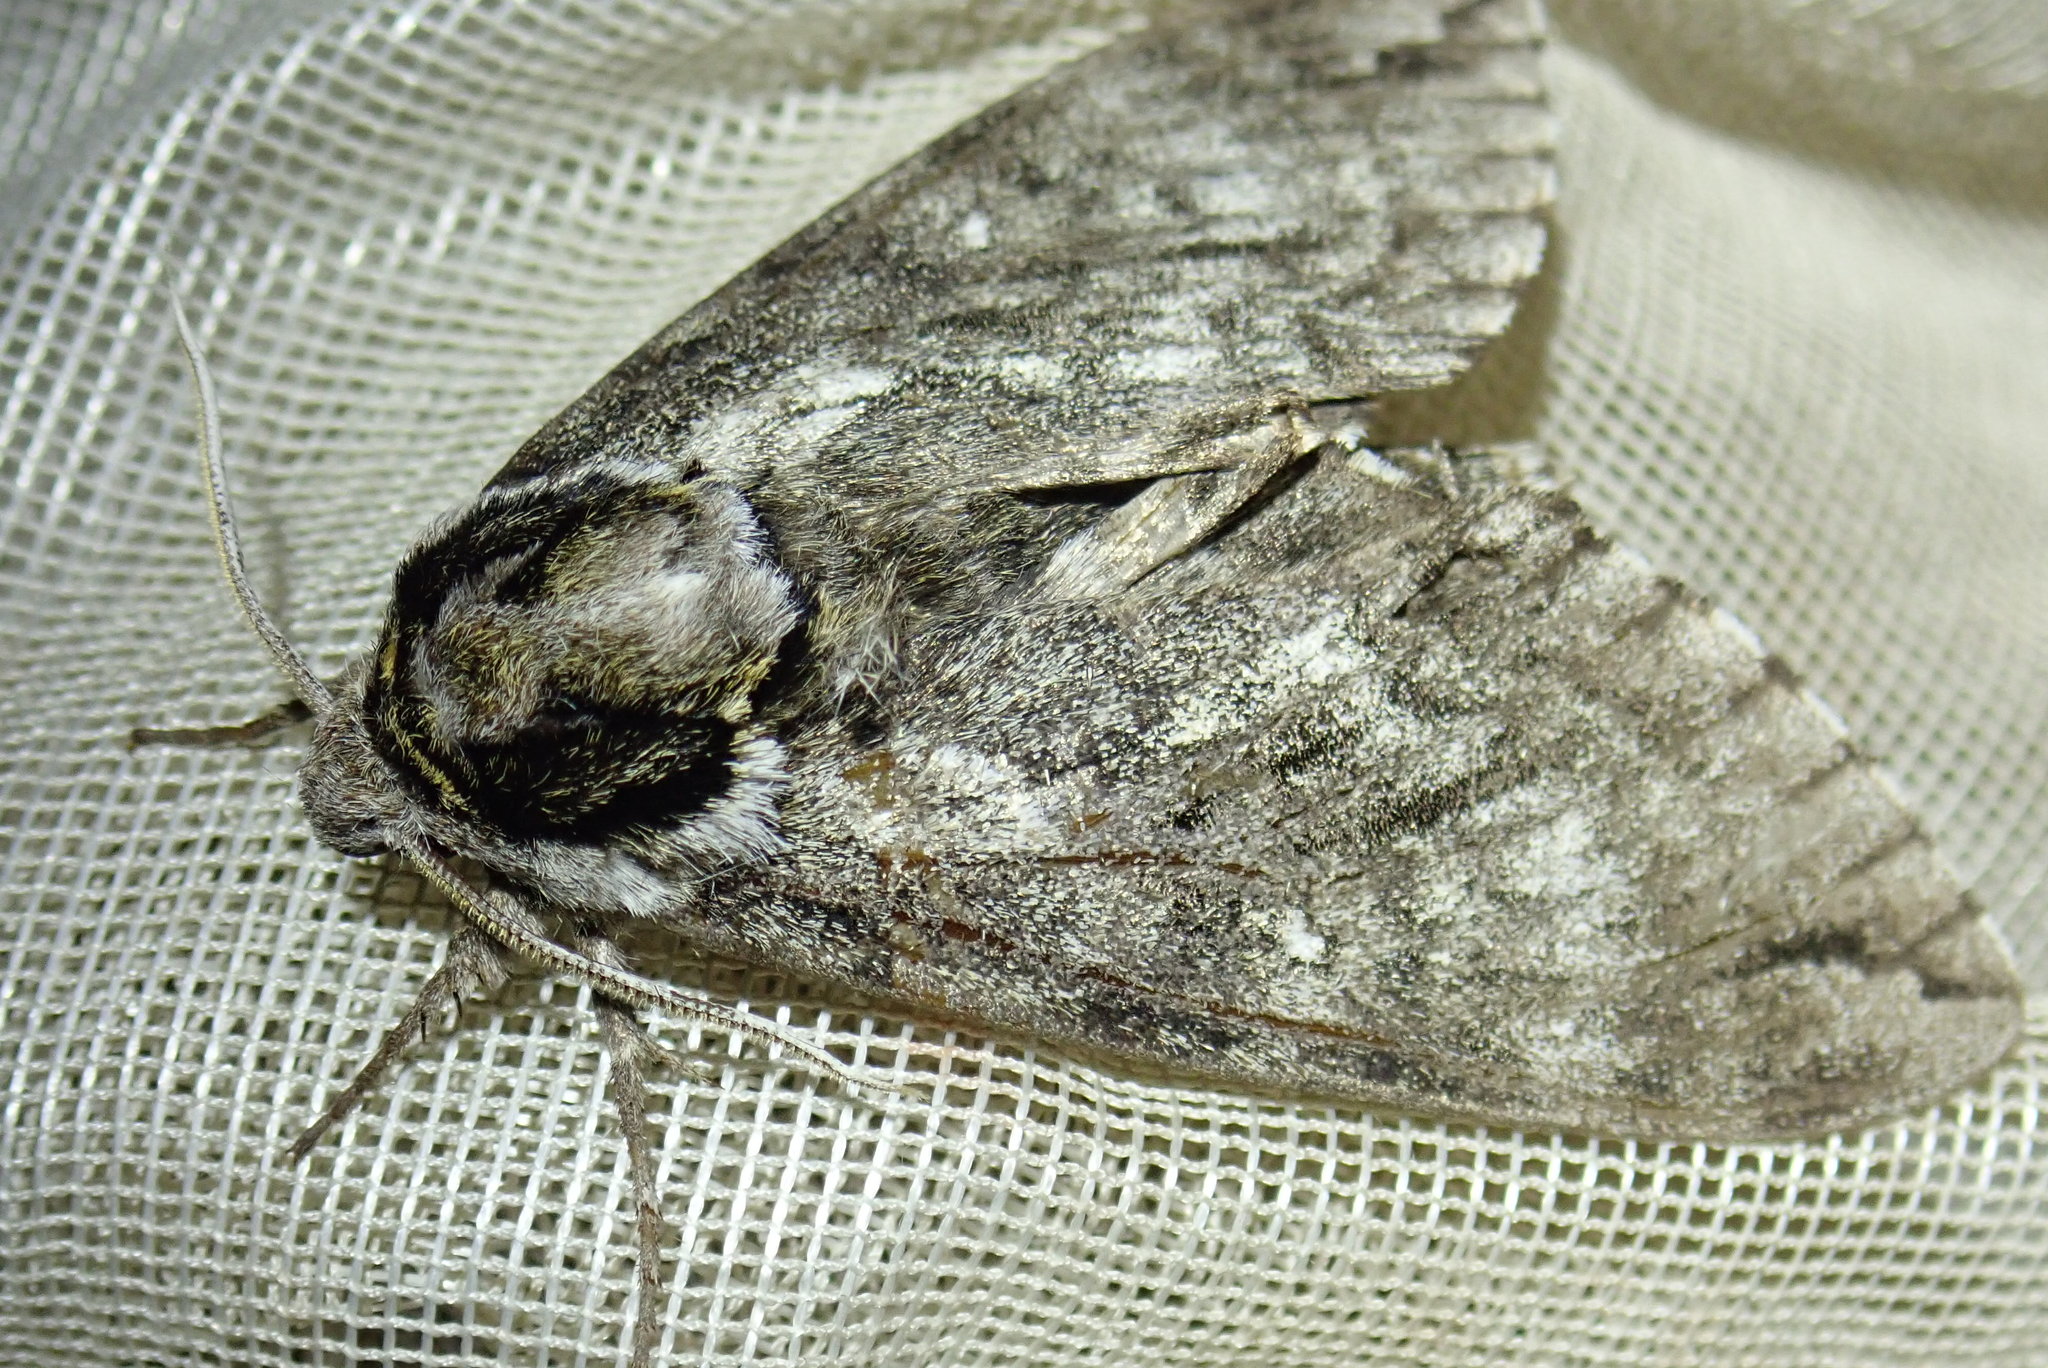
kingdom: Animalia
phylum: Arthropoda
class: Insecta
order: Lepidoptera
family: Sphingidae
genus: Ceratomia
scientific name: Ceratomia undulosa
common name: Waved sphinx
